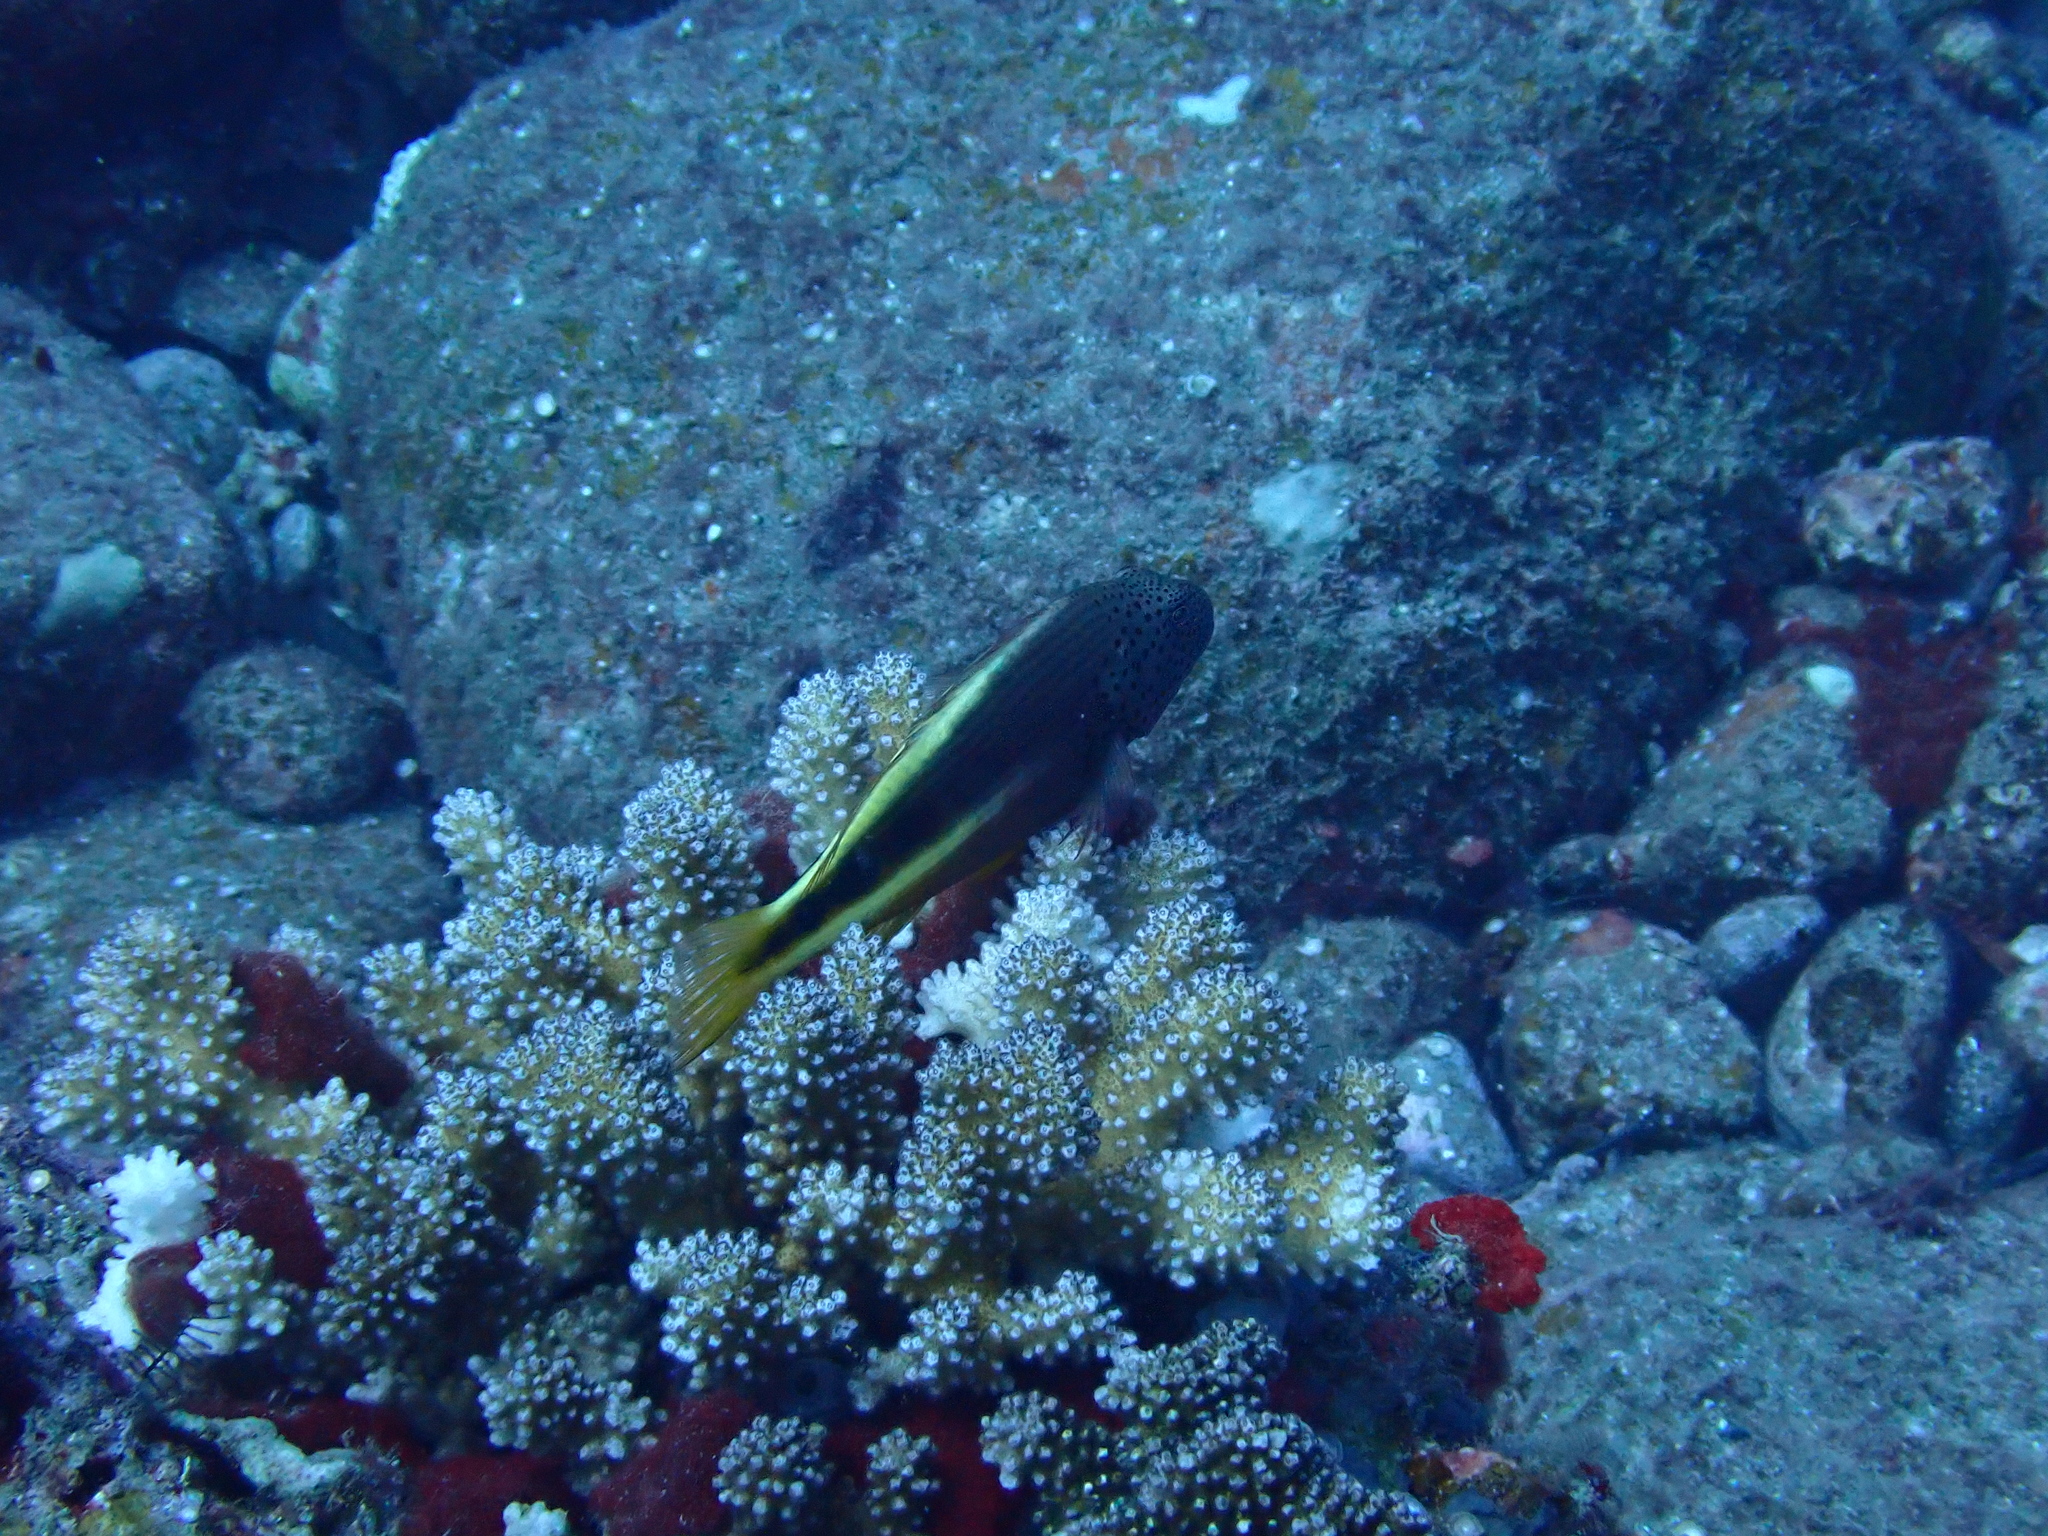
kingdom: Animalia
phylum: Chordata
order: Perciformes
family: Cirrhitidae
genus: Paracirrhites
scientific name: Paracirrhites forsteri
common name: Freckled hawkfish
